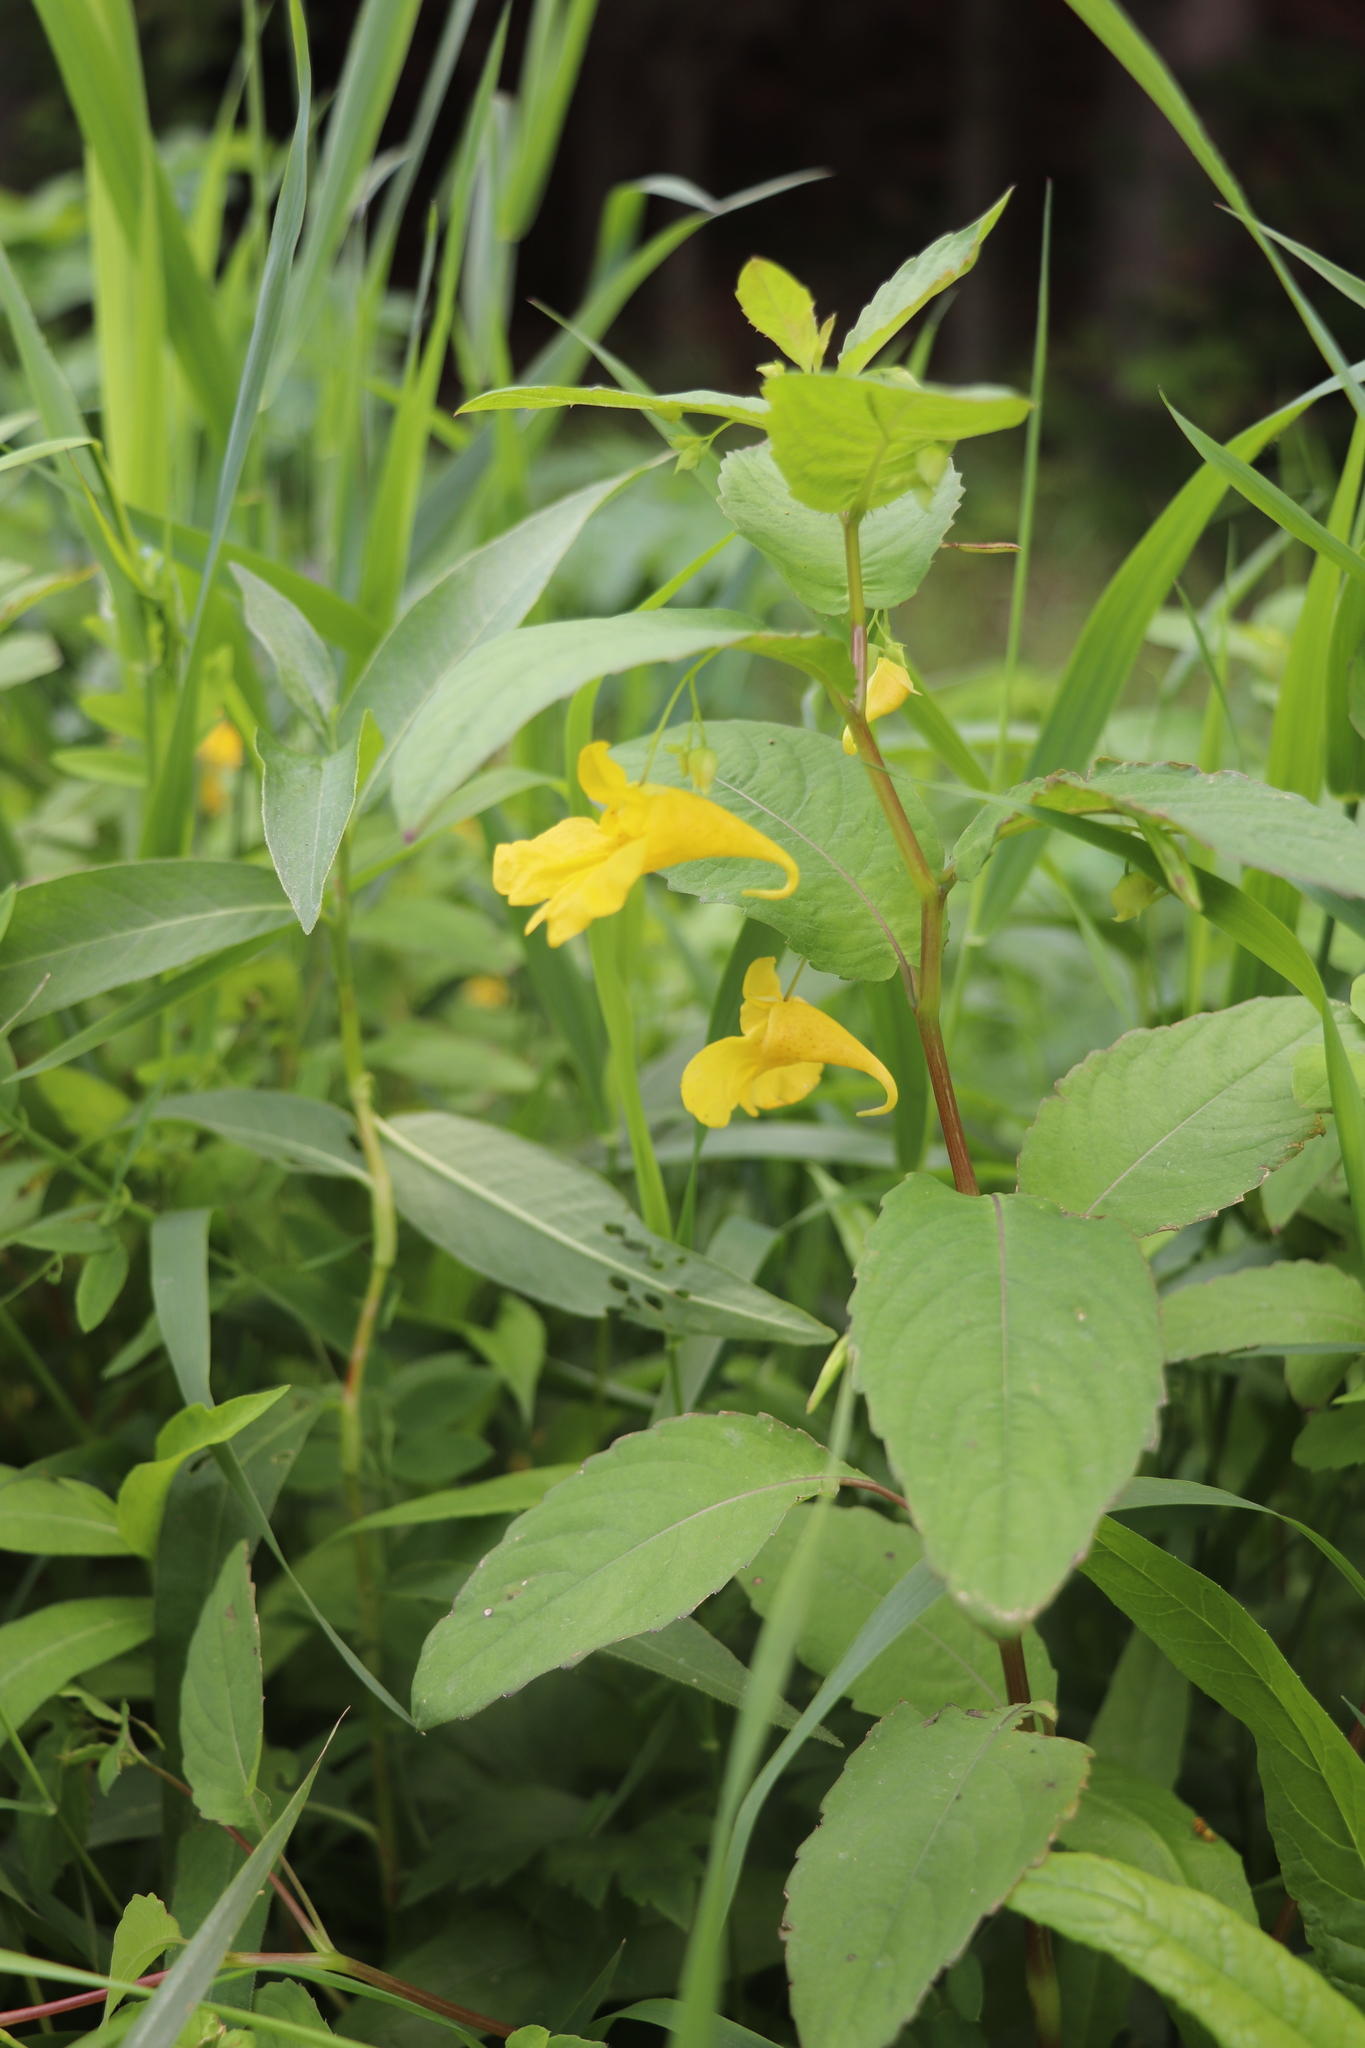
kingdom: Plantae
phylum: Tracheophyta
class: Magnoliopsida
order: Ericales
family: Balsaminaceae
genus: Impatiens
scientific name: Impatiens noli-tangere
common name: Touch-me-not balsam
